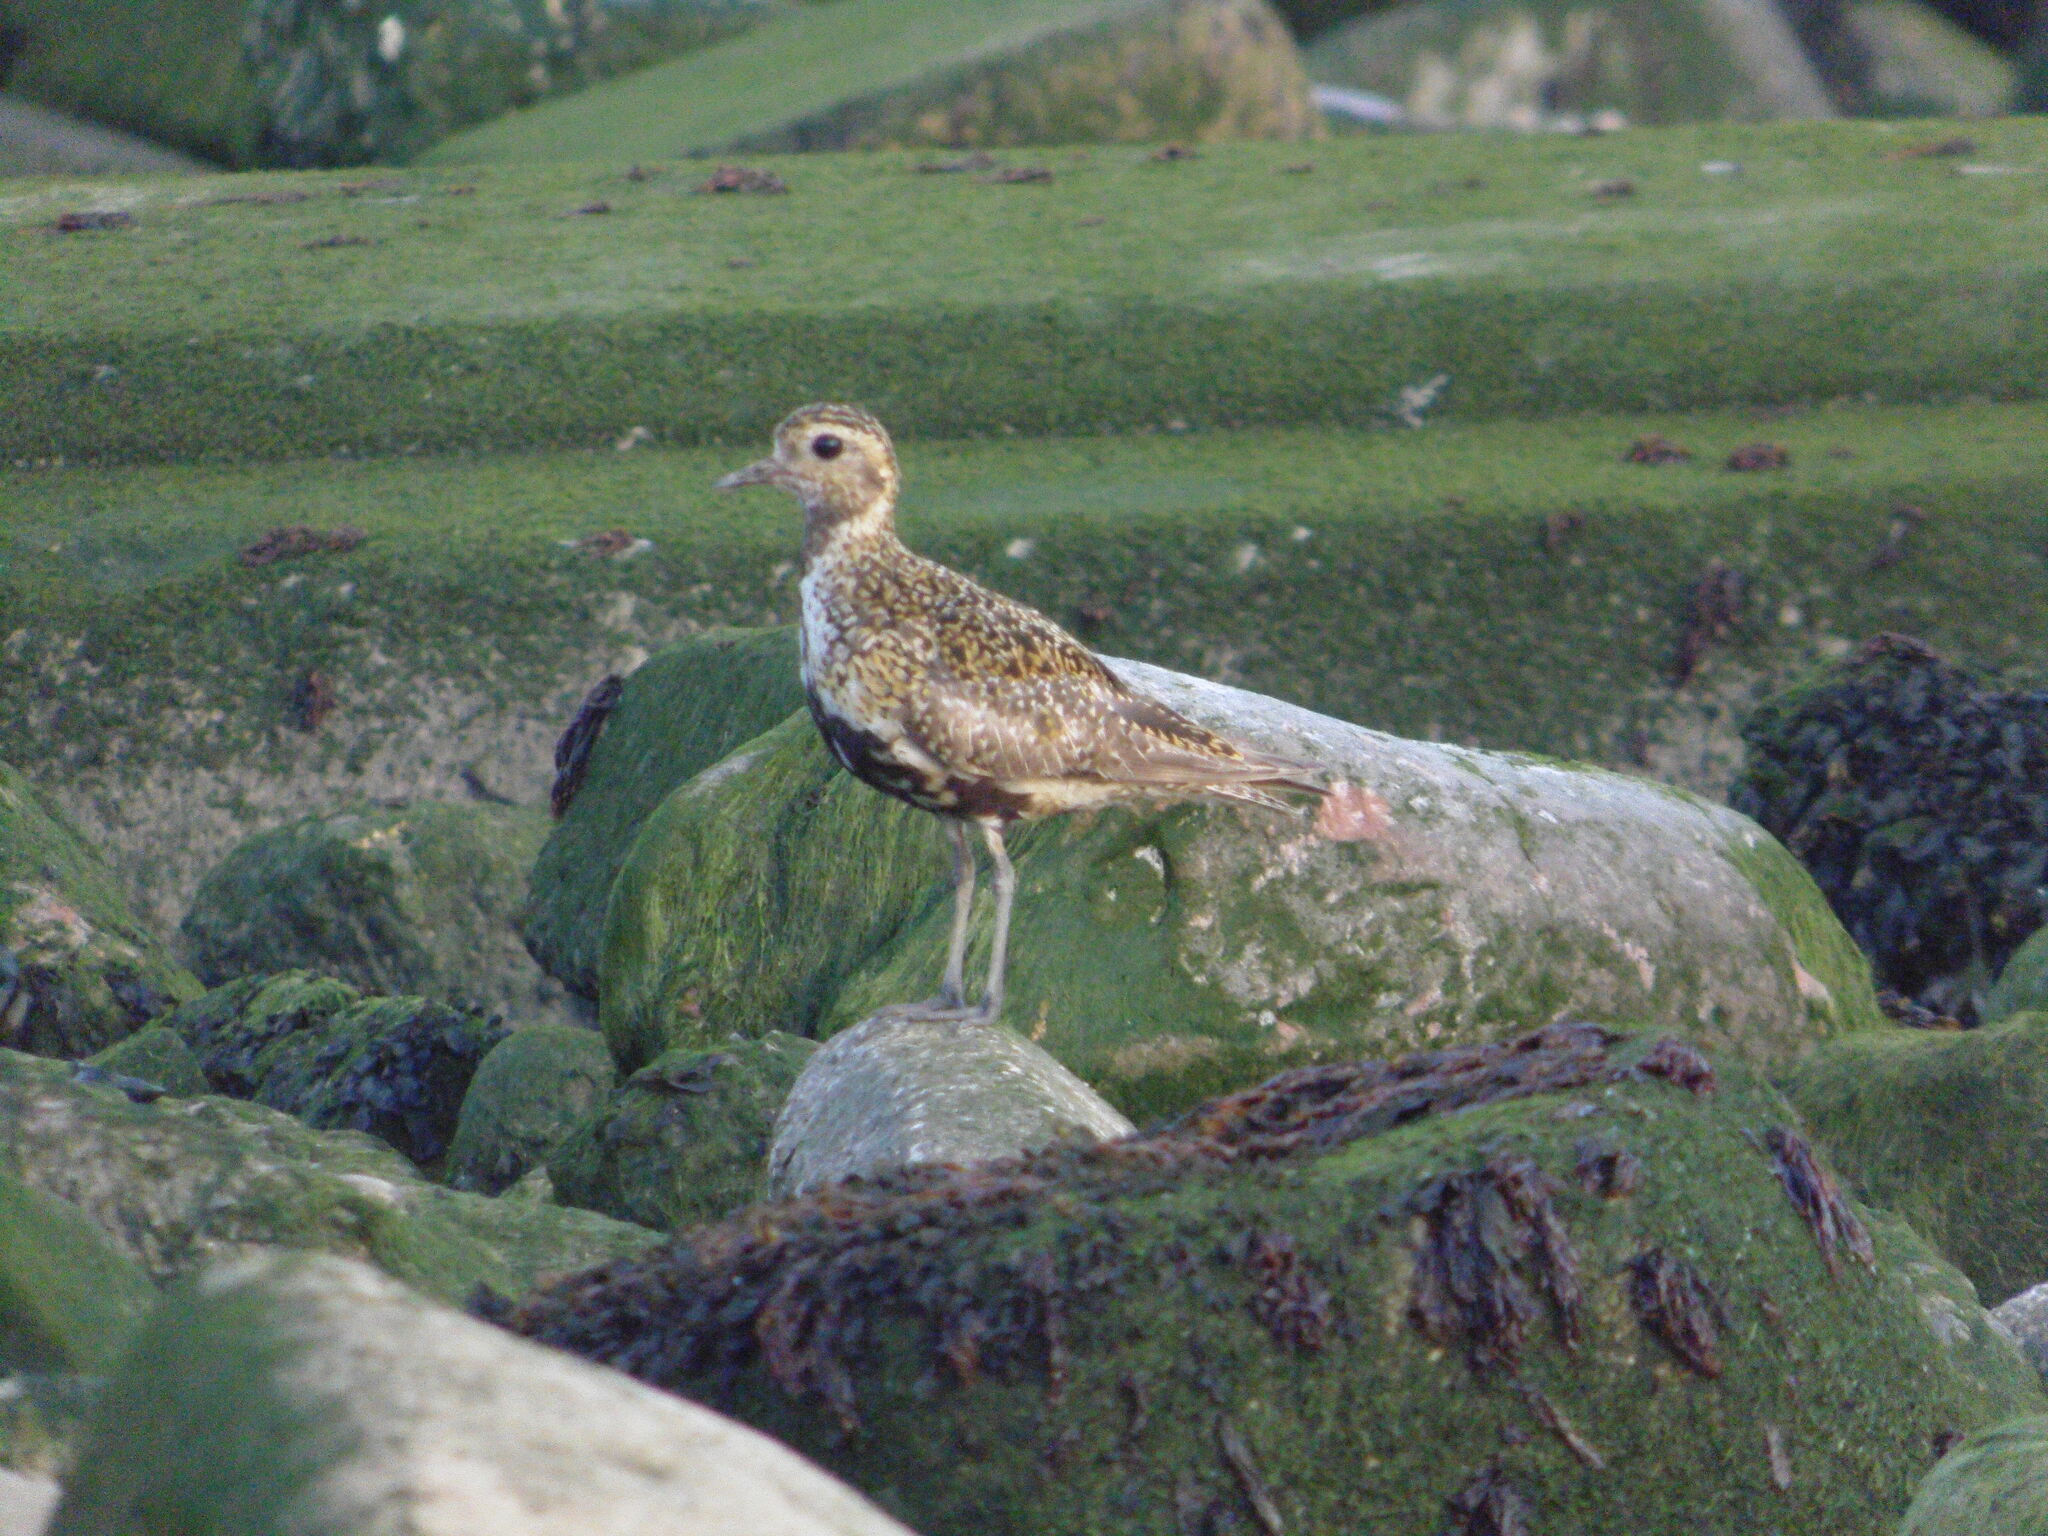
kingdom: Animalia
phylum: Chordata
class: Aves
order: Charadriiformes
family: Charadriidae
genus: Pluvialis
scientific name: Pluvialis apricaria
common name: European golden plover
